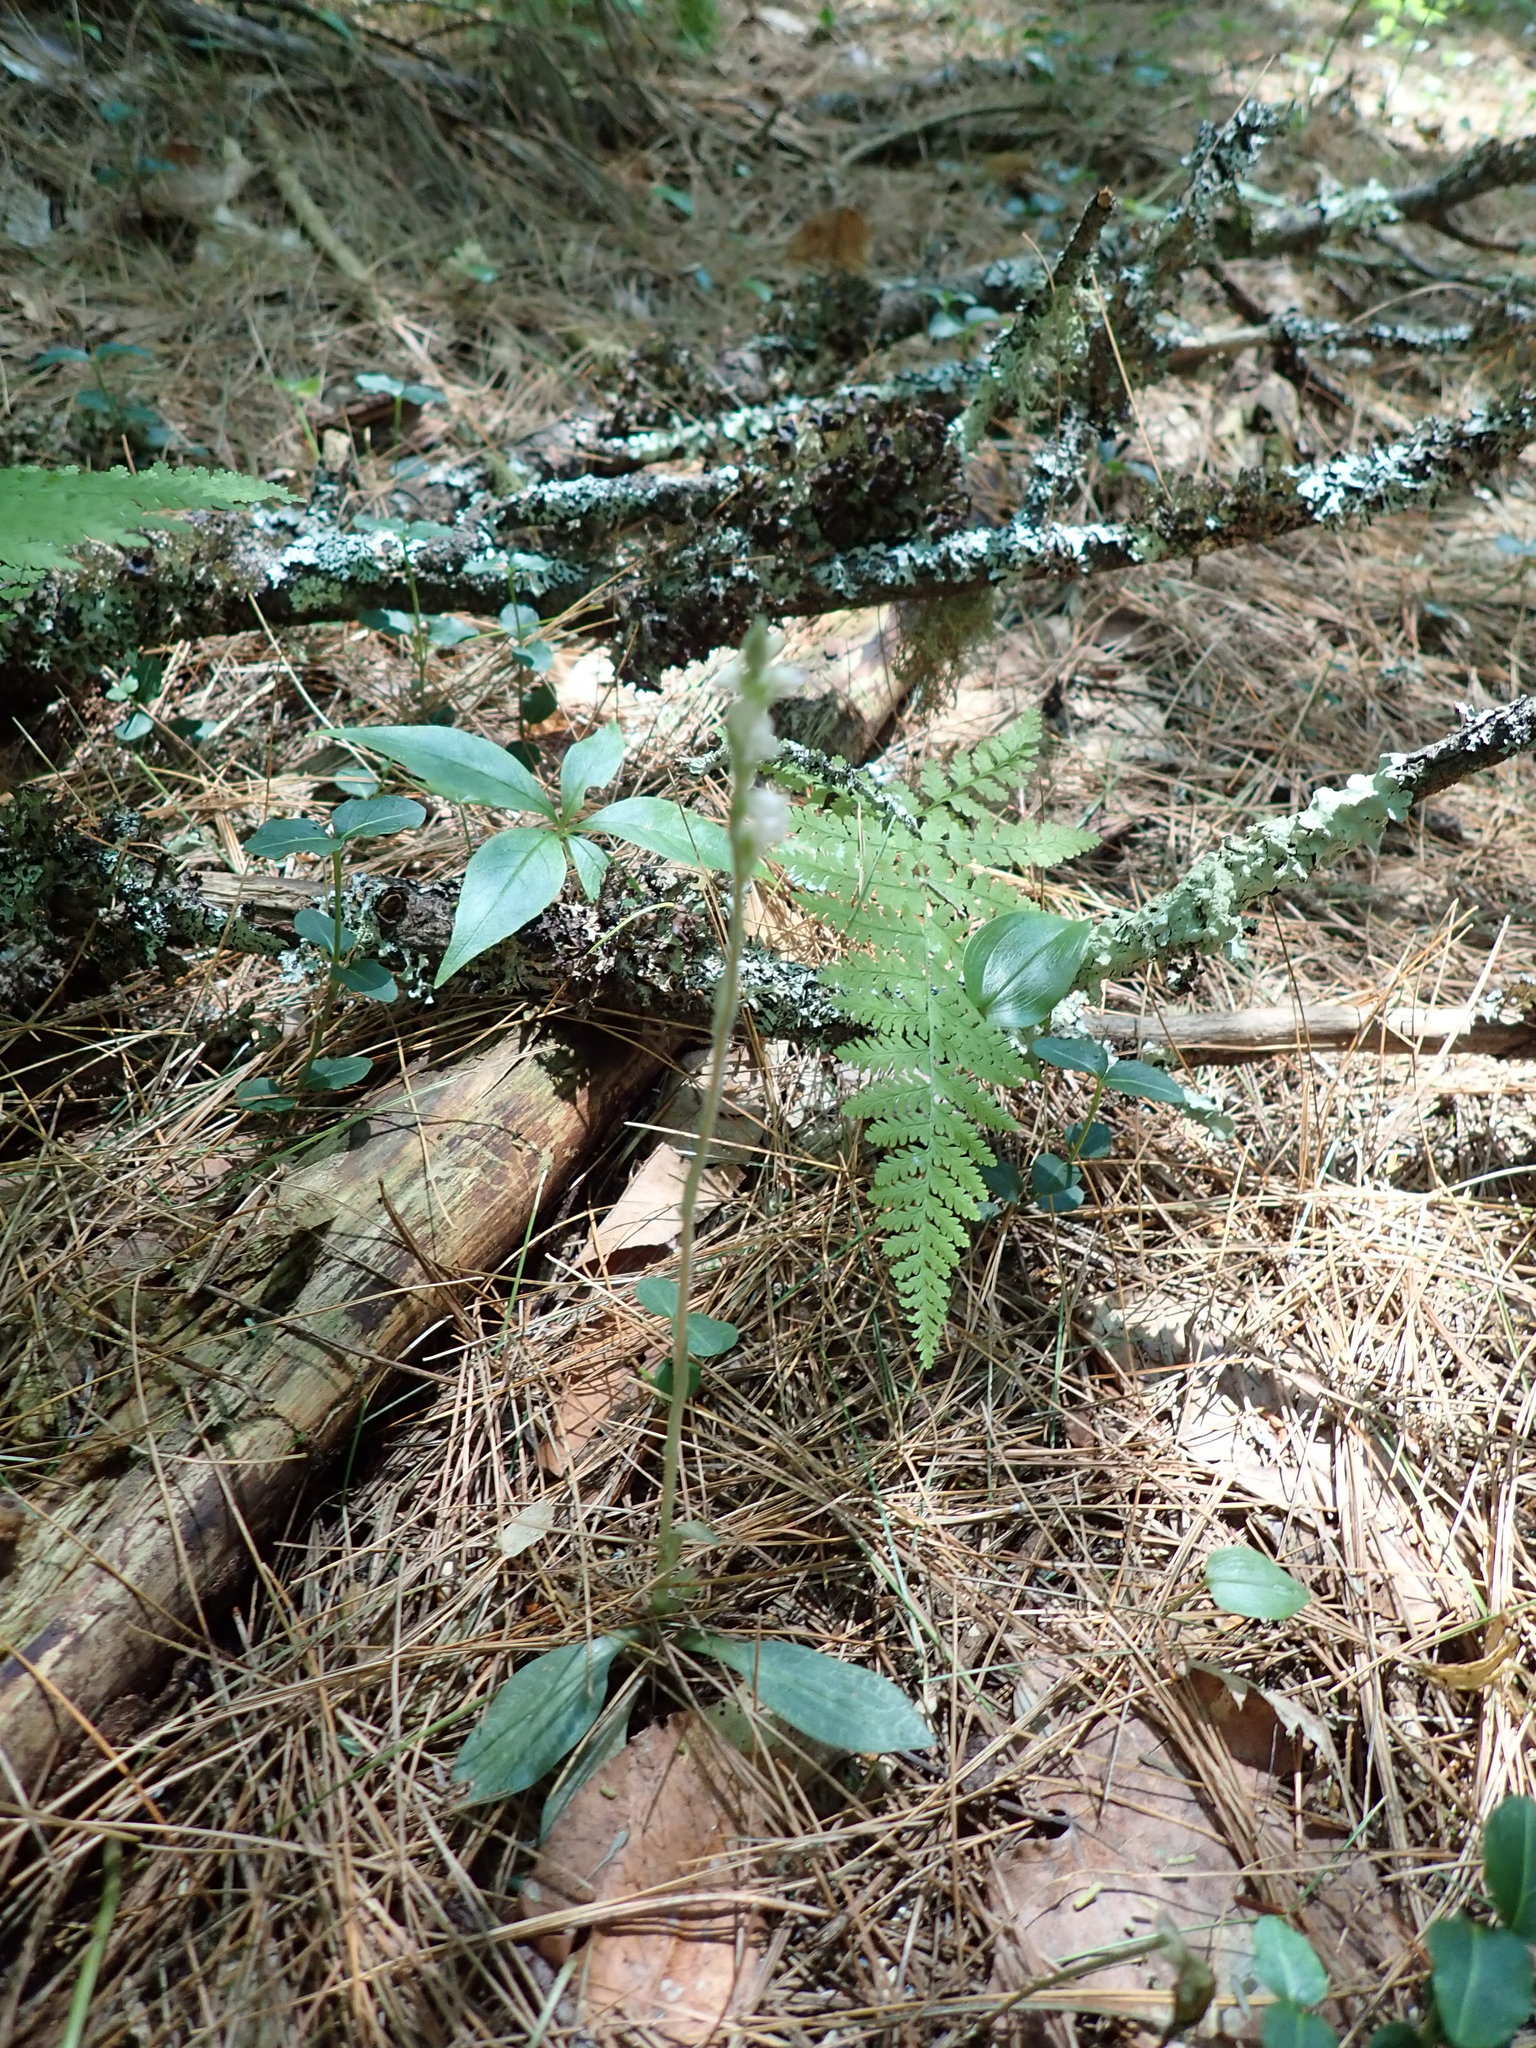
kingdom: Plantae
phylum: Tracheophyta
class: Liliopsida
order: Asparagales
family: Orchidaceae
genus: Goodyera
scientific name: Goodyera tesselata
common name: Checkered rattlesnake-plantain
